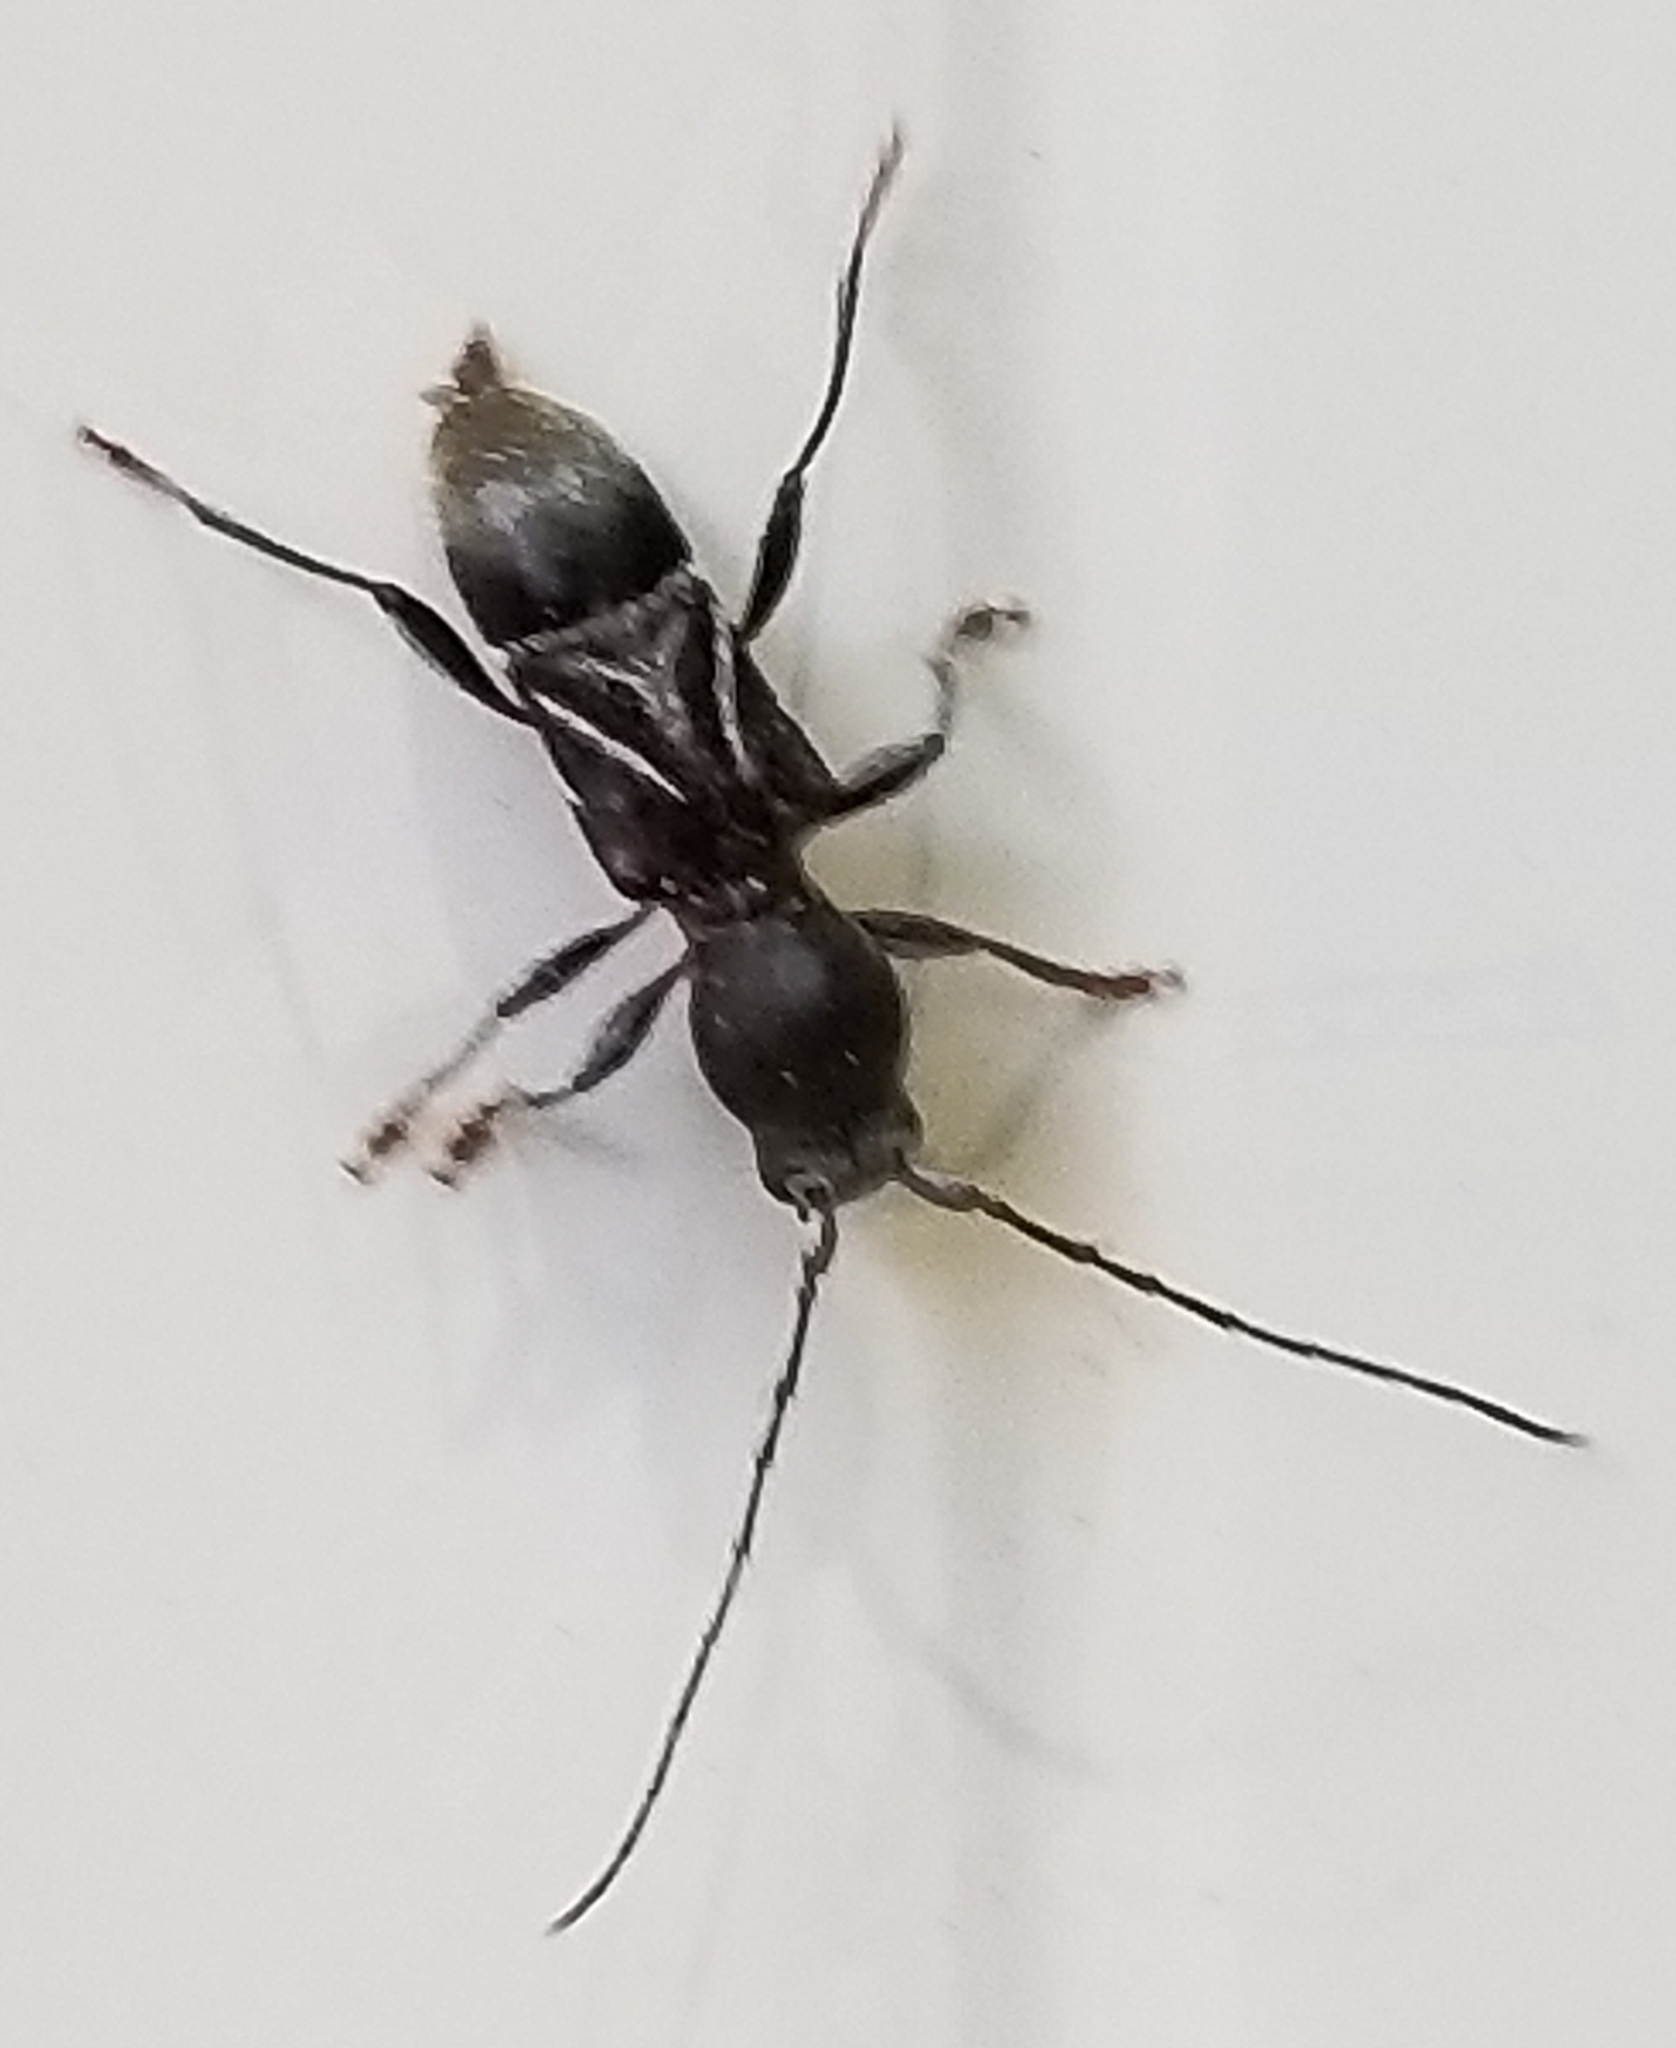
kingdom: Animalia
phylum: Arthropoda
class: Insecta
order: Coleoptera
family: Cerambycidae
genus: Cyrtophorus
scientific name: Cyrtophorus verrucosus
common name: Ant-like longhorn beetle
